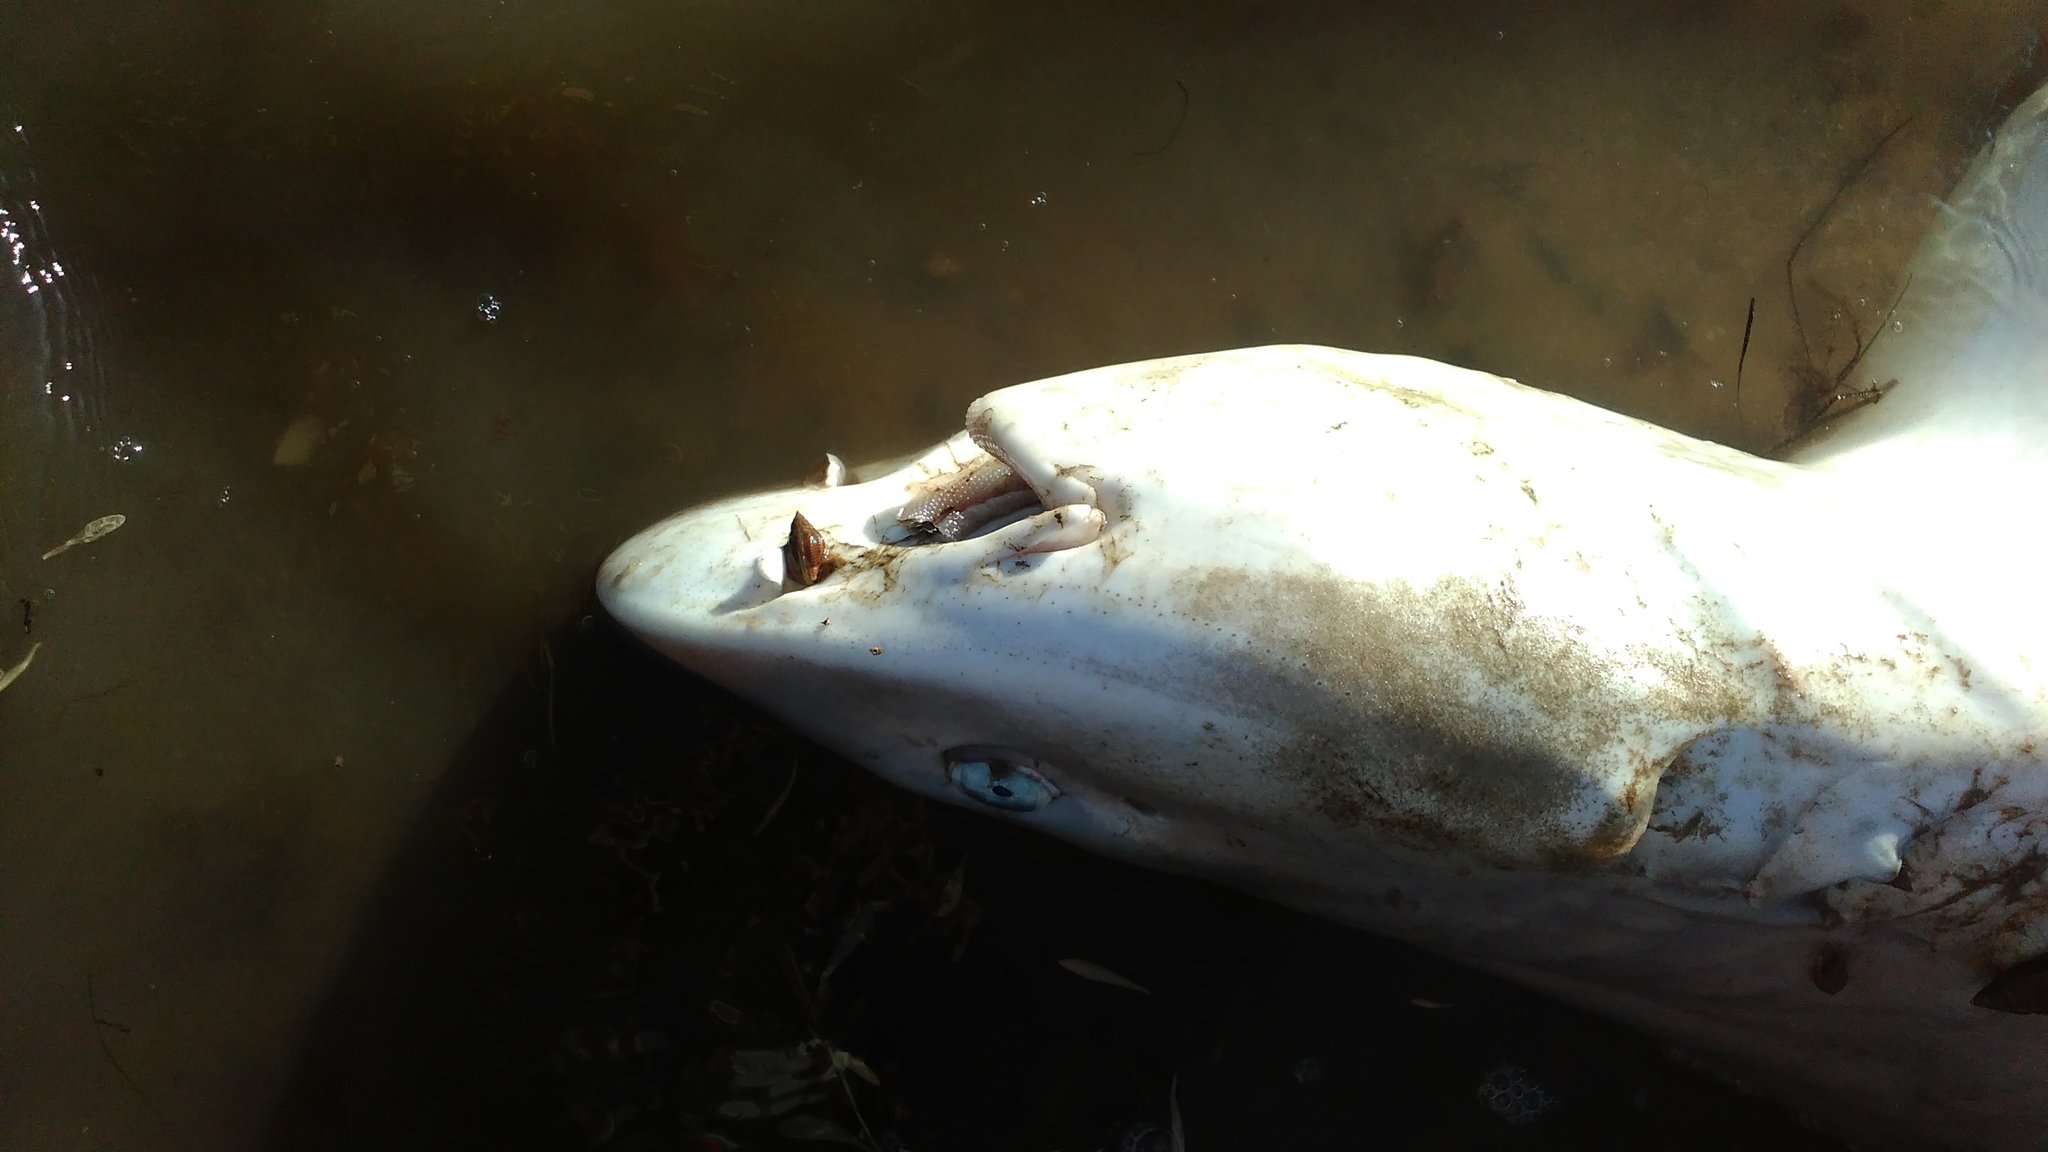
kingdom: Animalia
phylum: Chordata
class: Elasmobranchii
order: Carcharhiniformes
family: Triakidae
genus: Mustelus
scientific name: Mustelus mustelus
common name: Smooth-hound
